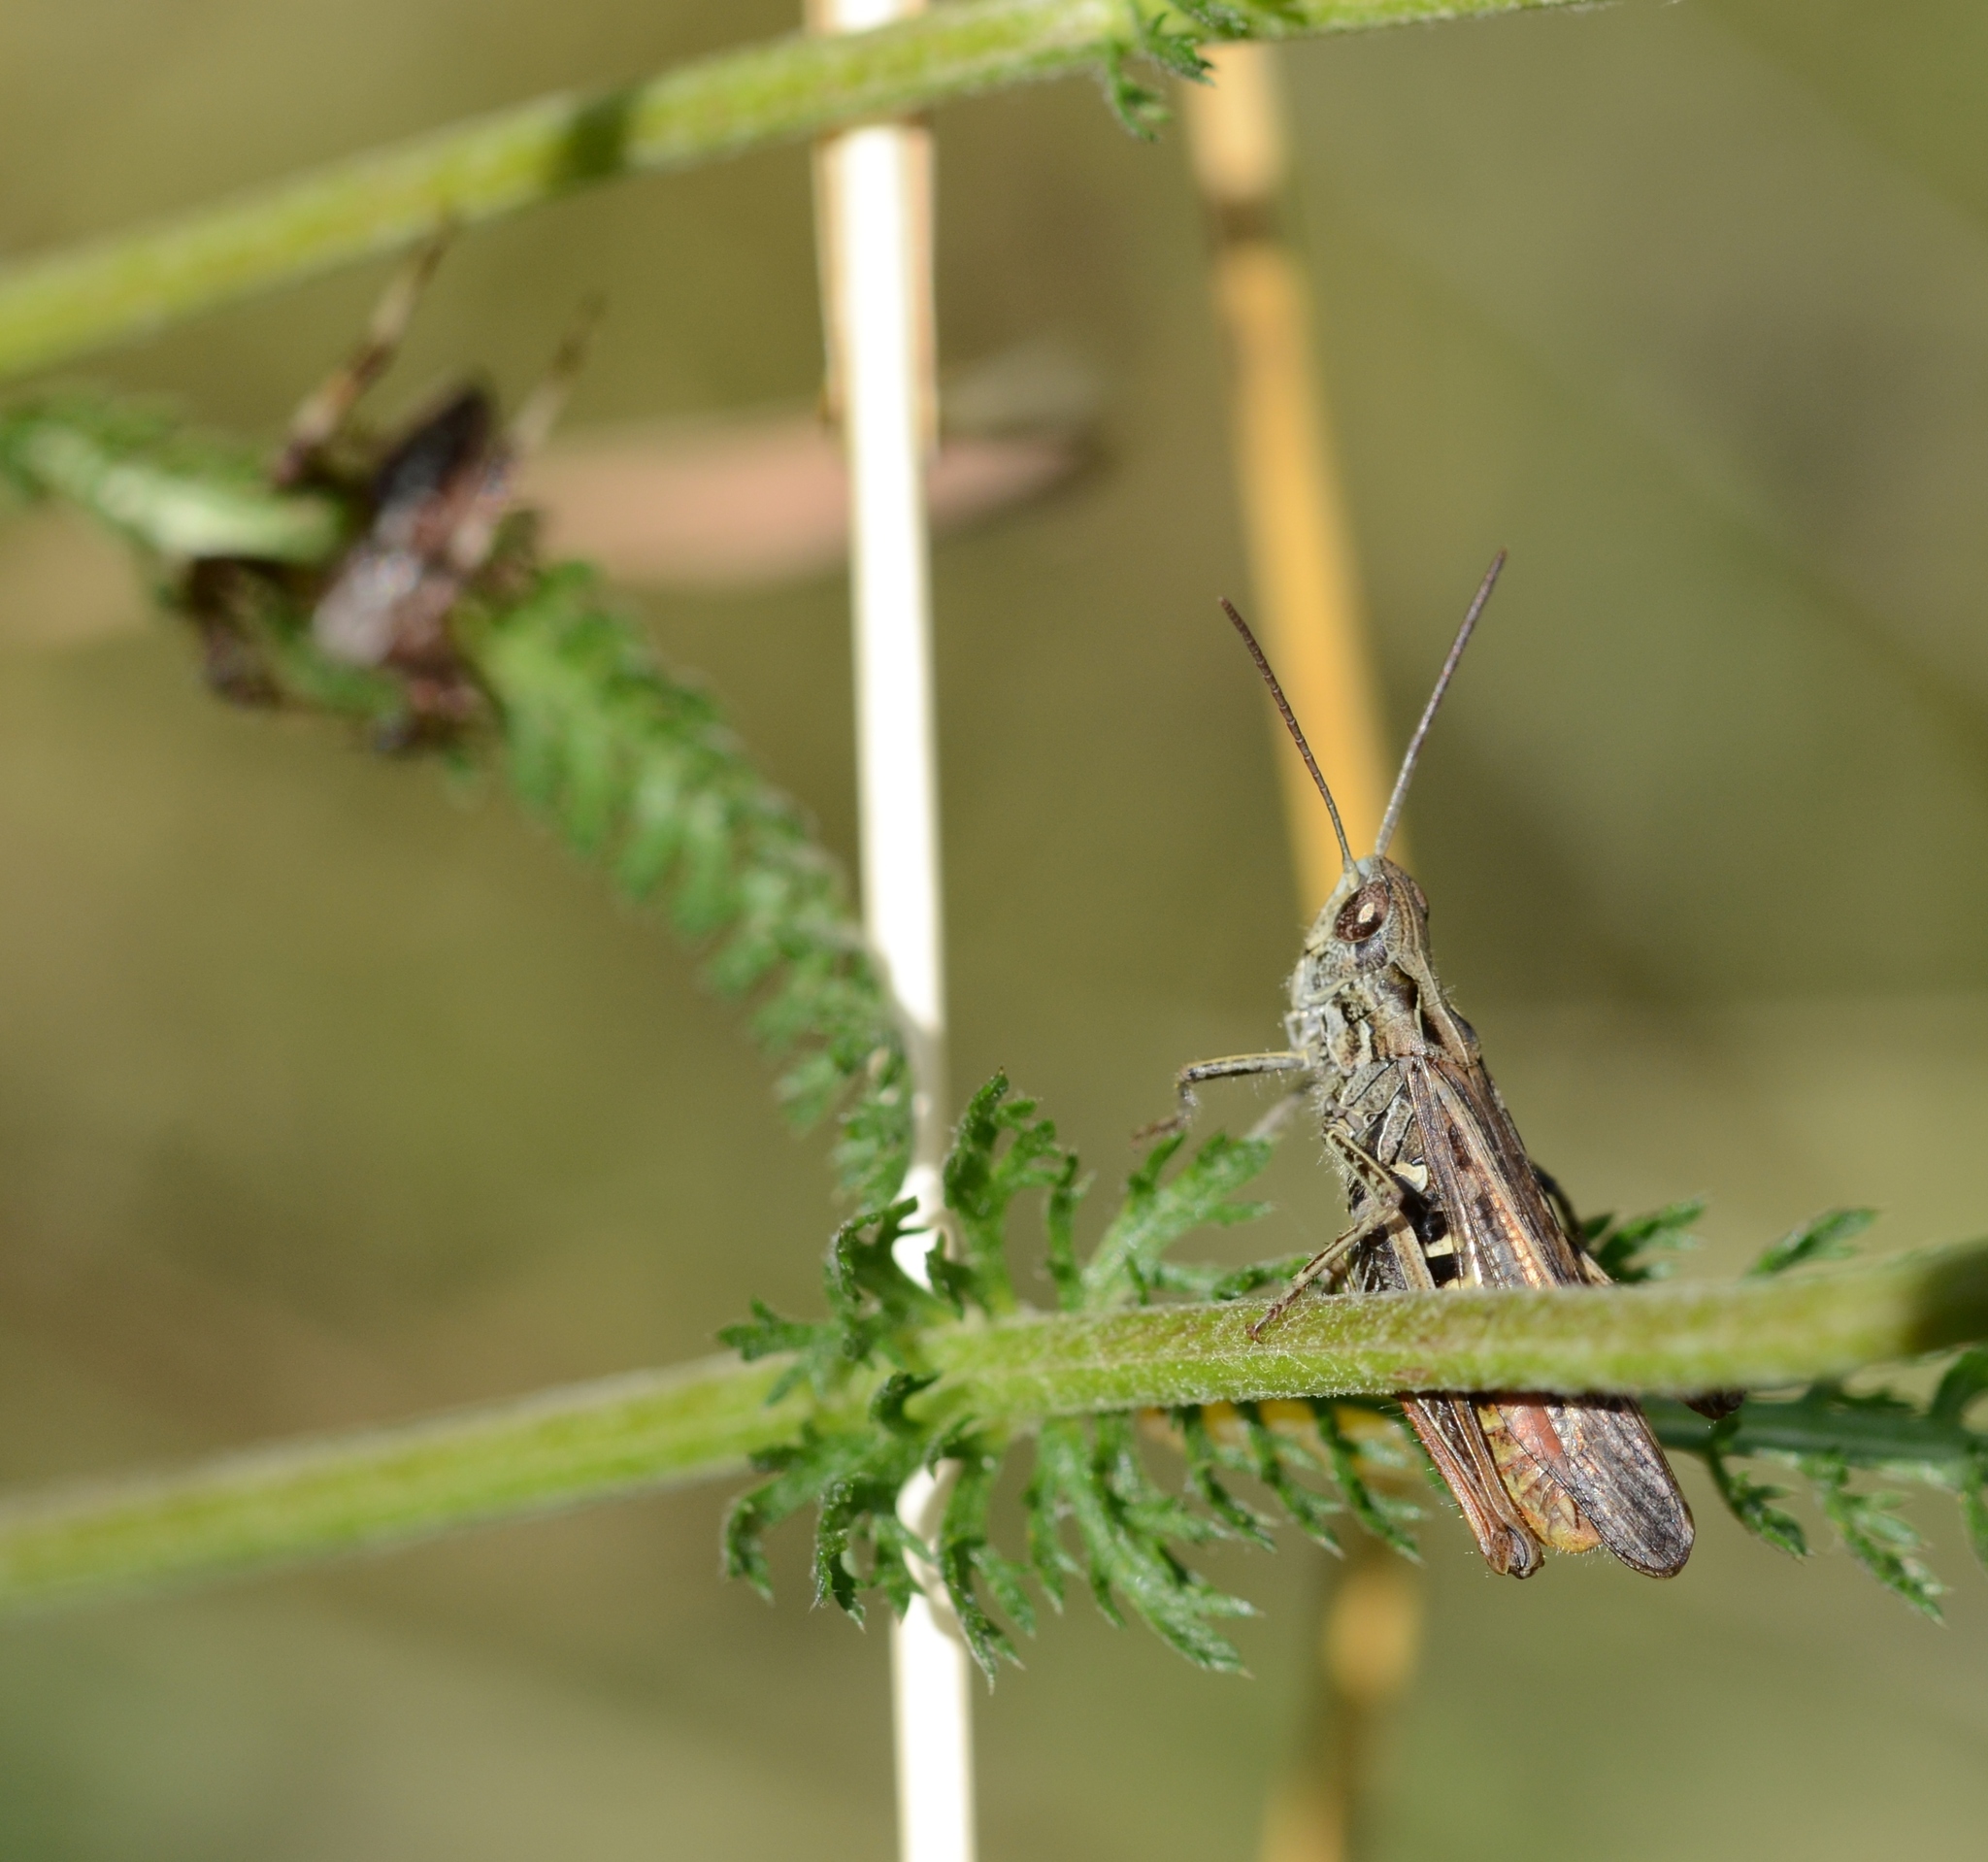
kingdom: Animalia
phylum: Arthropoda
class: Insecta
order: Orthoptera
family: Acrididae
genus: Chorthippus
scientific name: Chorthippus biguttulus
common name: Bow-winged grasshopper
